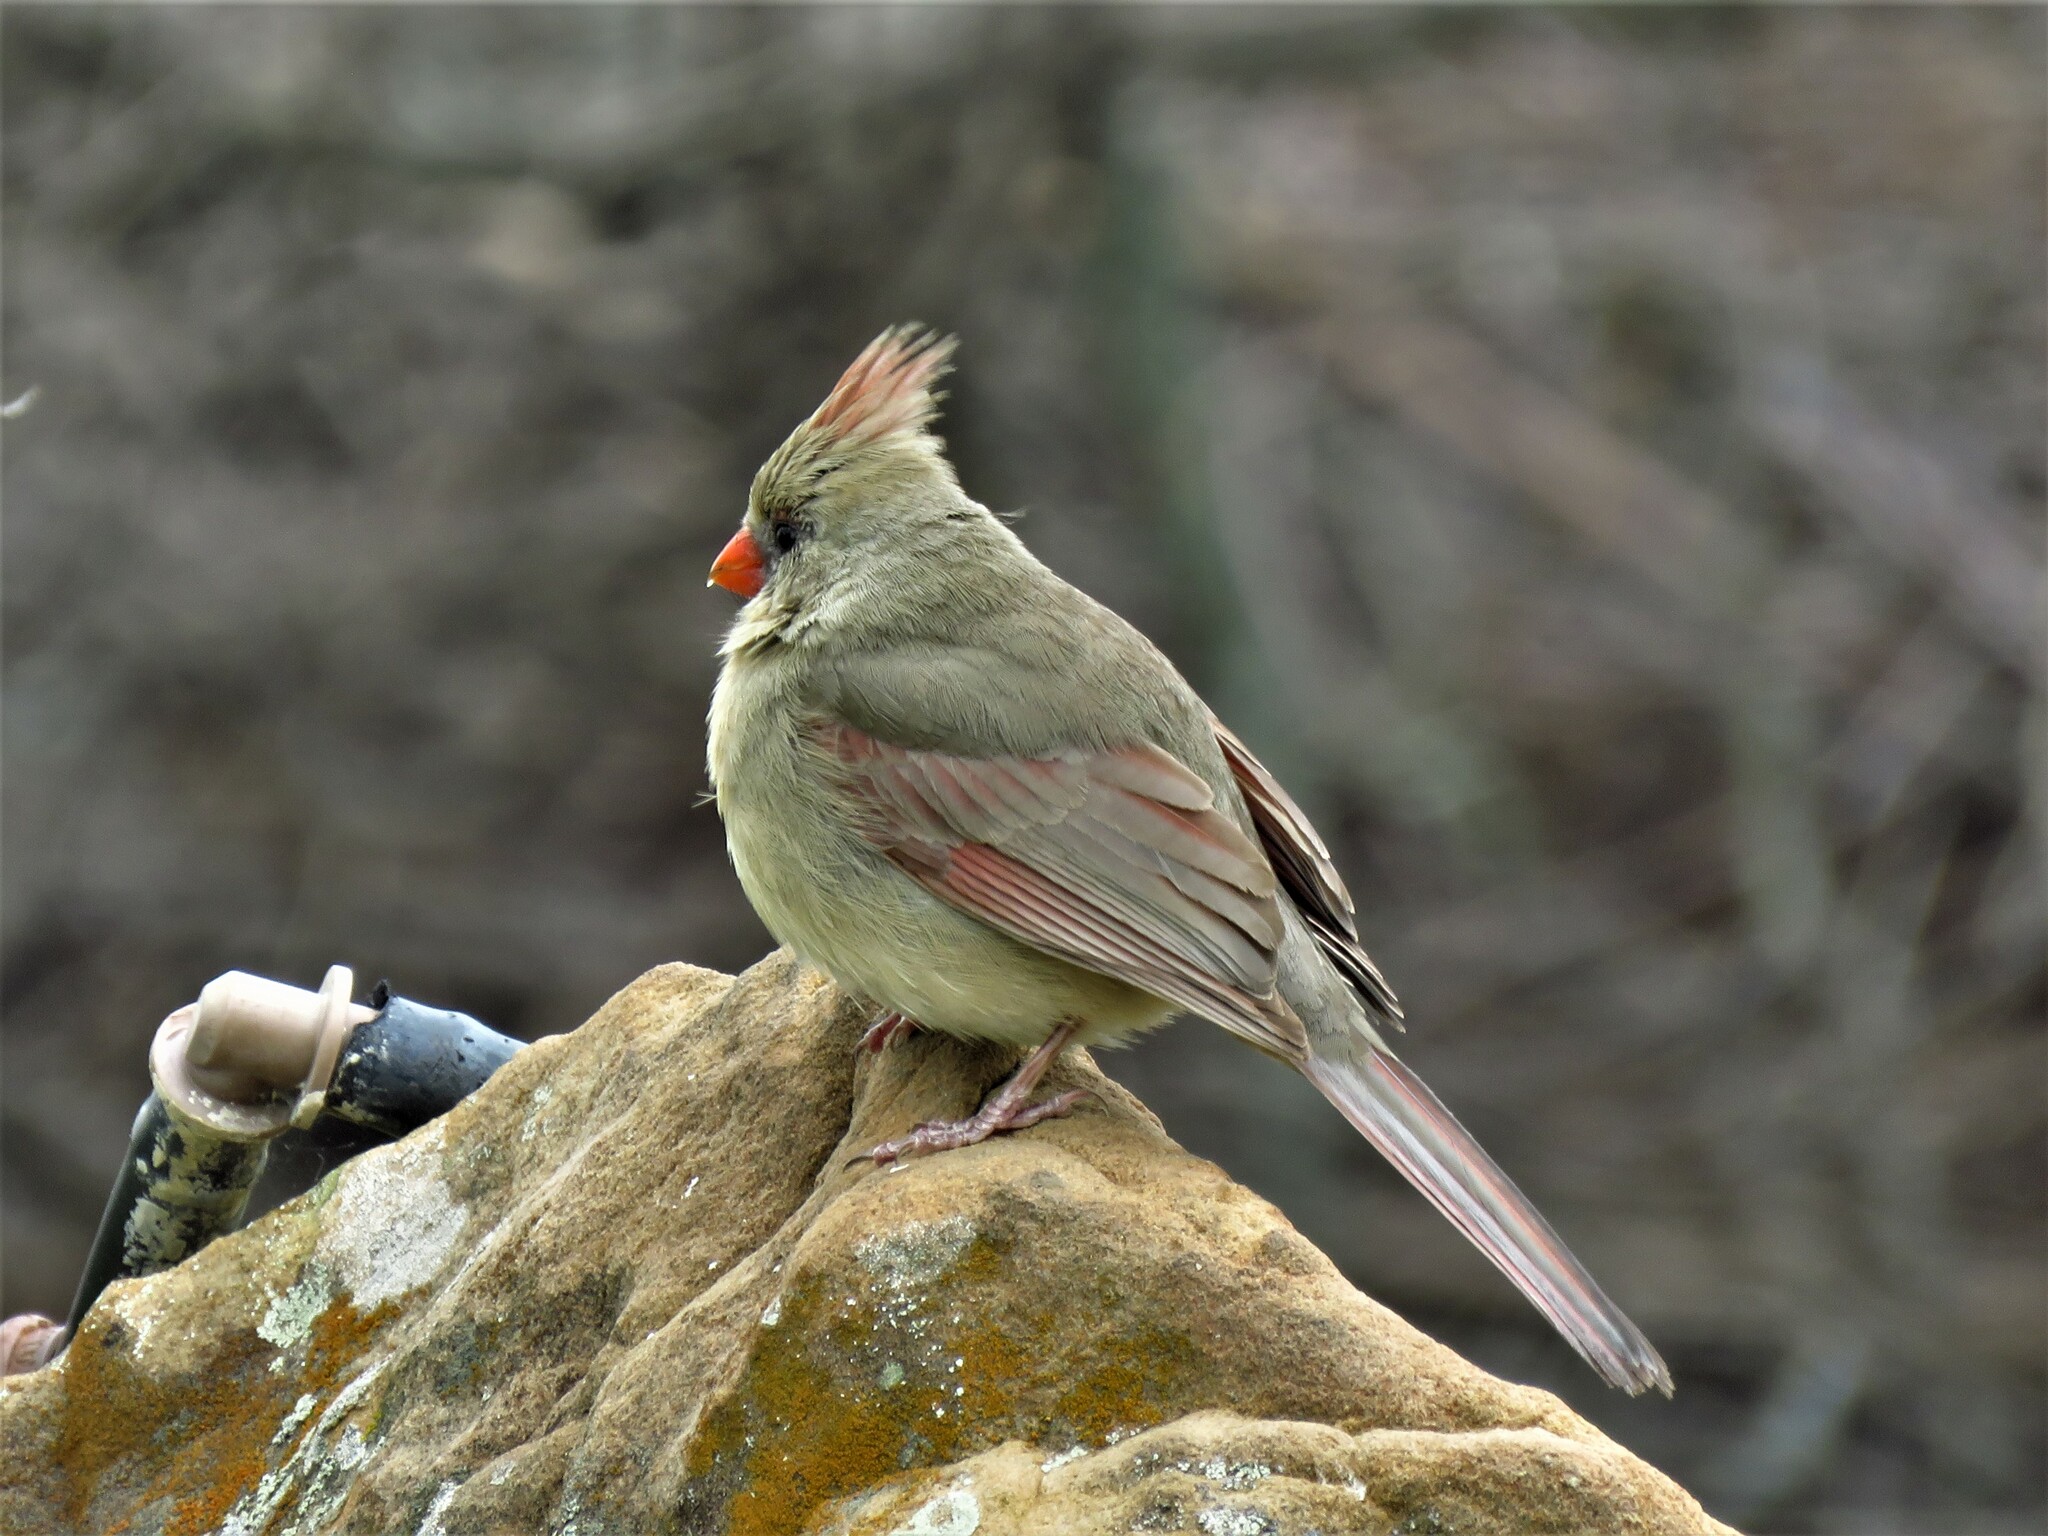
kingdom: Animalia
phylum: Chordata
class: Aves
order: Passeriformes
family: Cardinalidae
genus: Cardinalis
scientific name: Cardinalis cardinalis
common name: Northern cardinal
